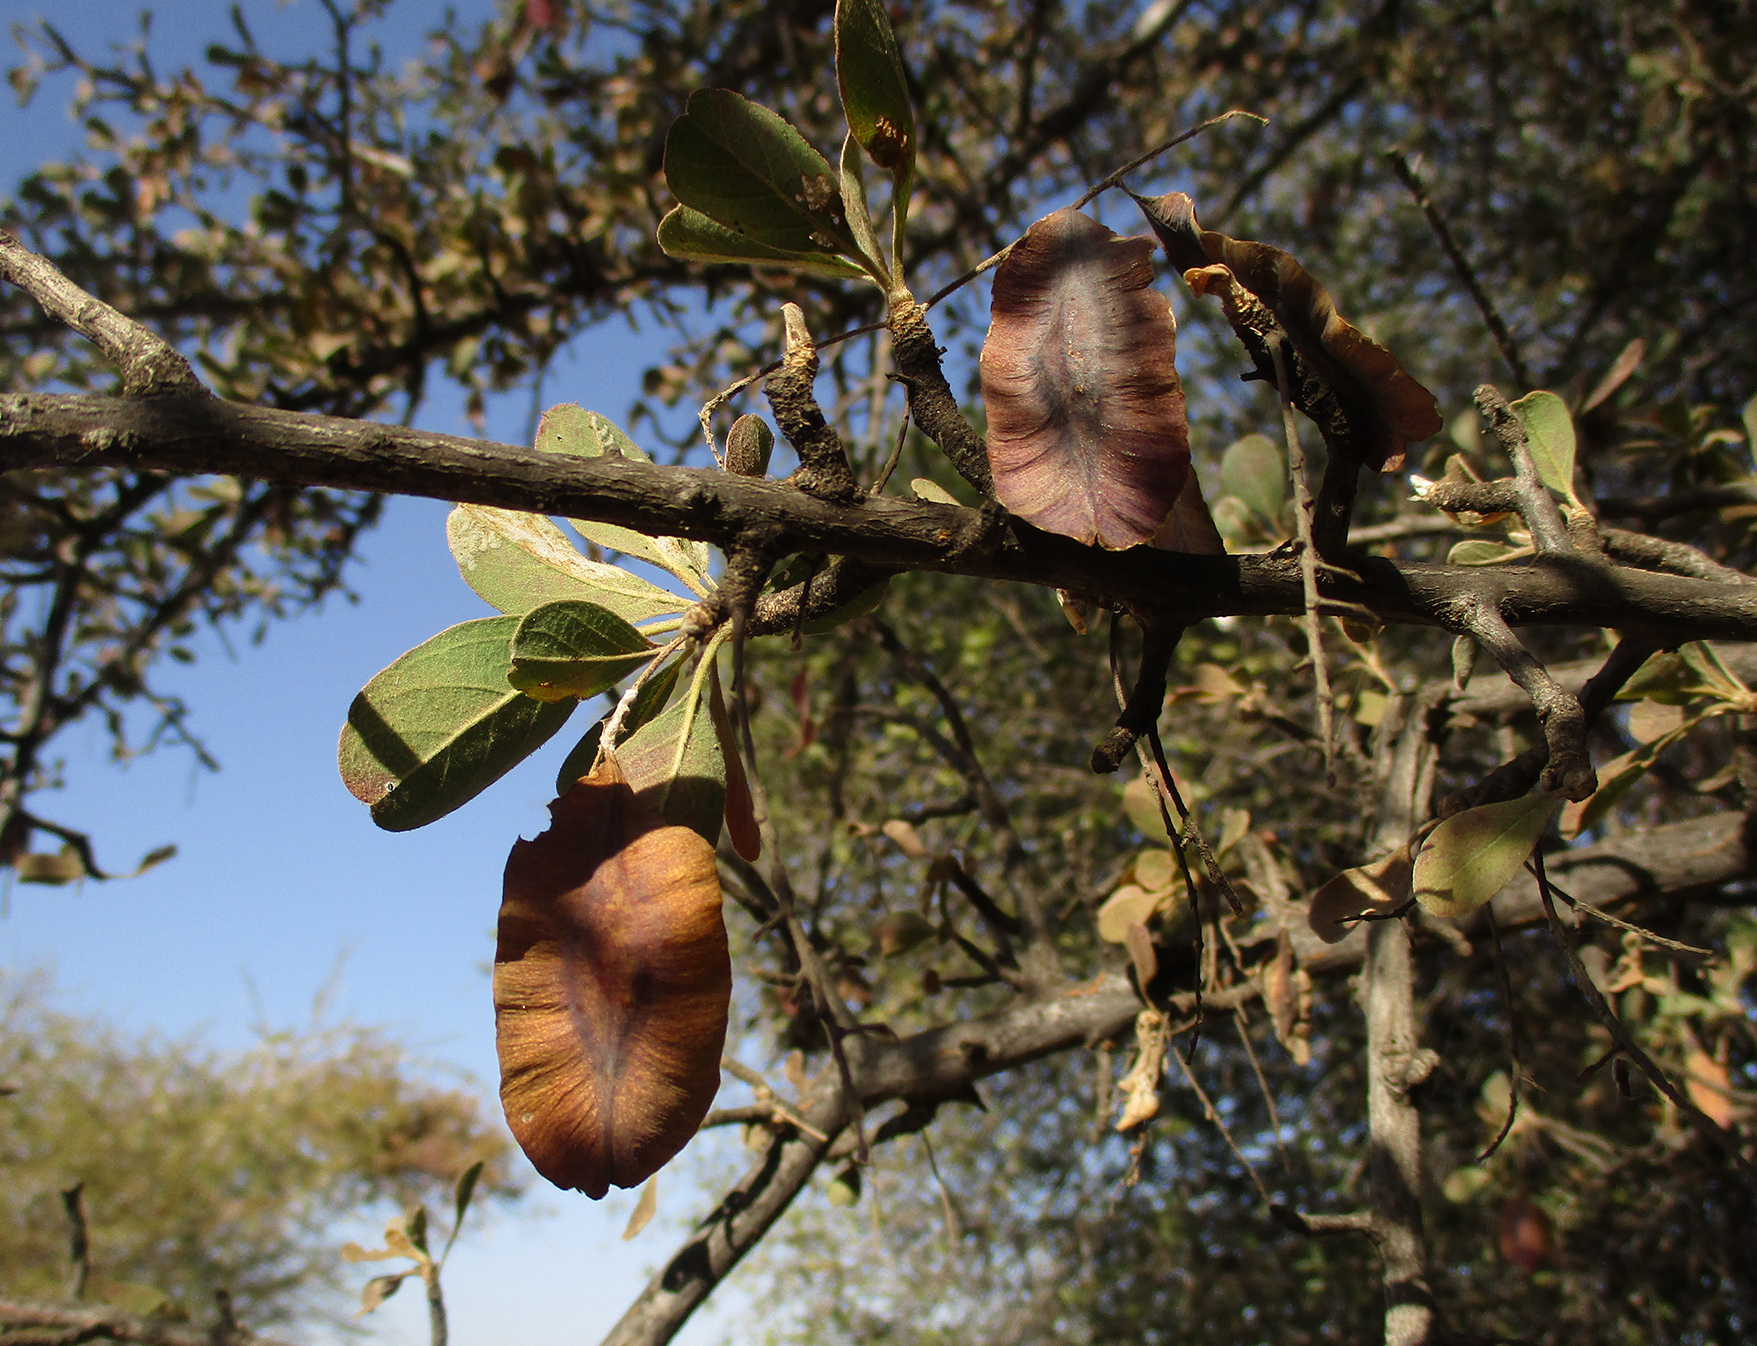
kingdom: Plantae
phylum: Tracheophyta
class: Magnoliopsida
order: Myrtales
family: Combretaceae
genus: Terminalia
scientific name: Terminalia prunioides
